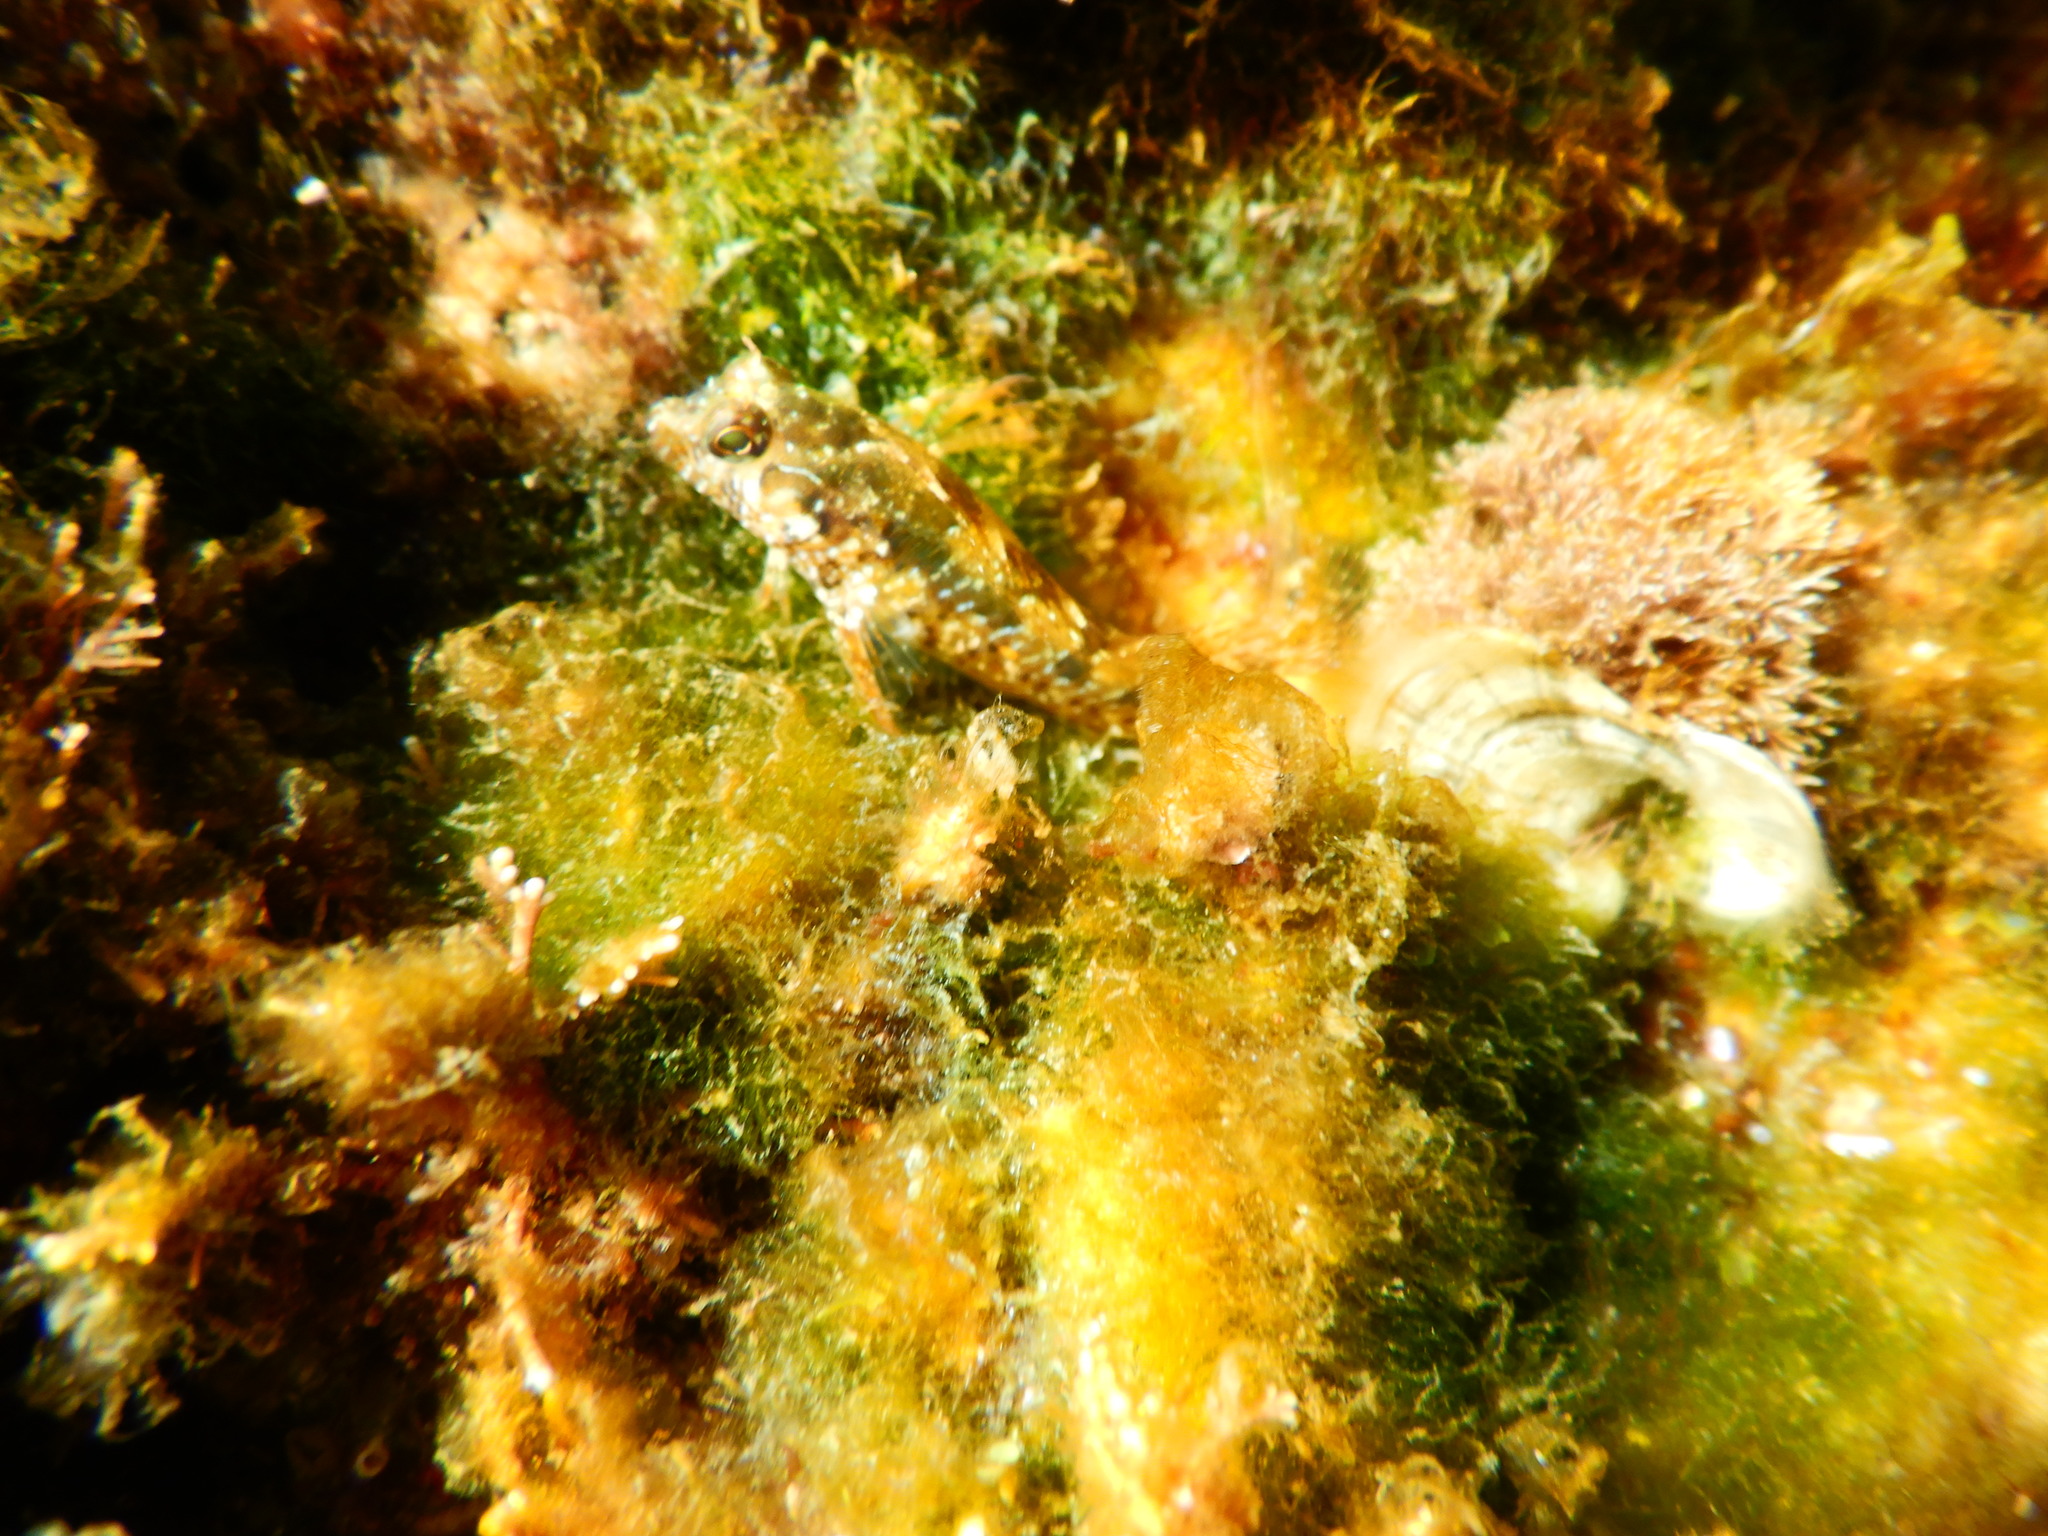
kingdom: Animalia
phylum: Chordata
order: Perciformes
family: Blenniidae
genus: Parablennius
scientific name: Parablennius incognitus
